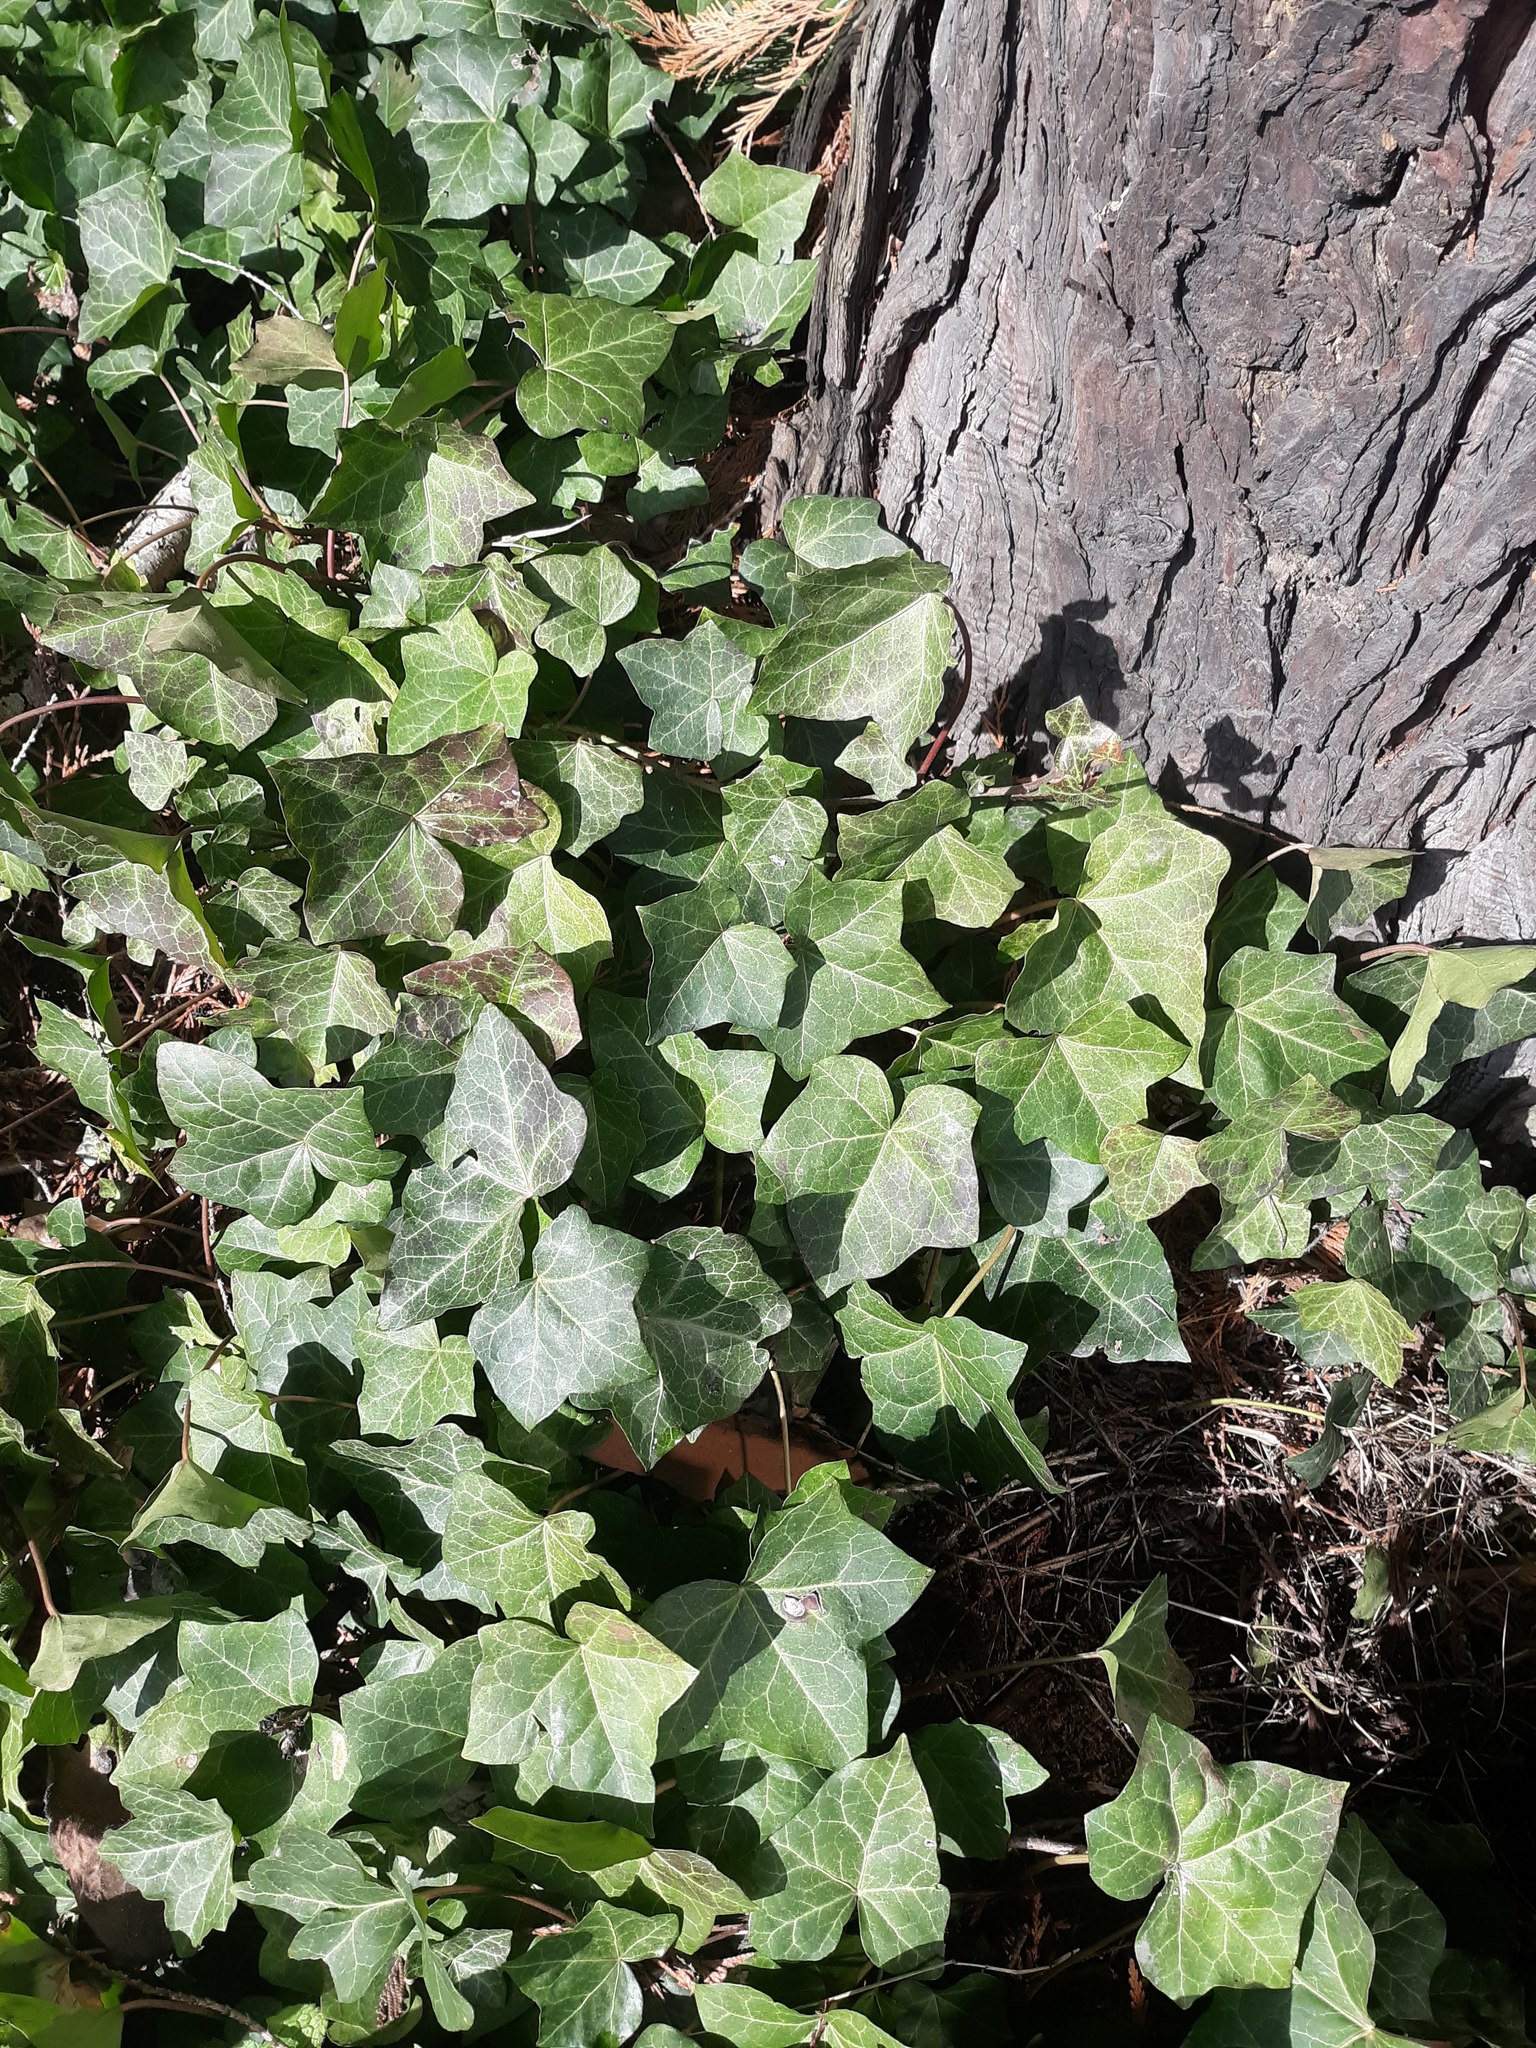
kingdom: Plantae
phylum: Tracheophyta
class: Magnoliopsida
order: Apiales
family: Araliaceae
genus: Hedera
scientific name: Hedera helix
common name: Ivy
